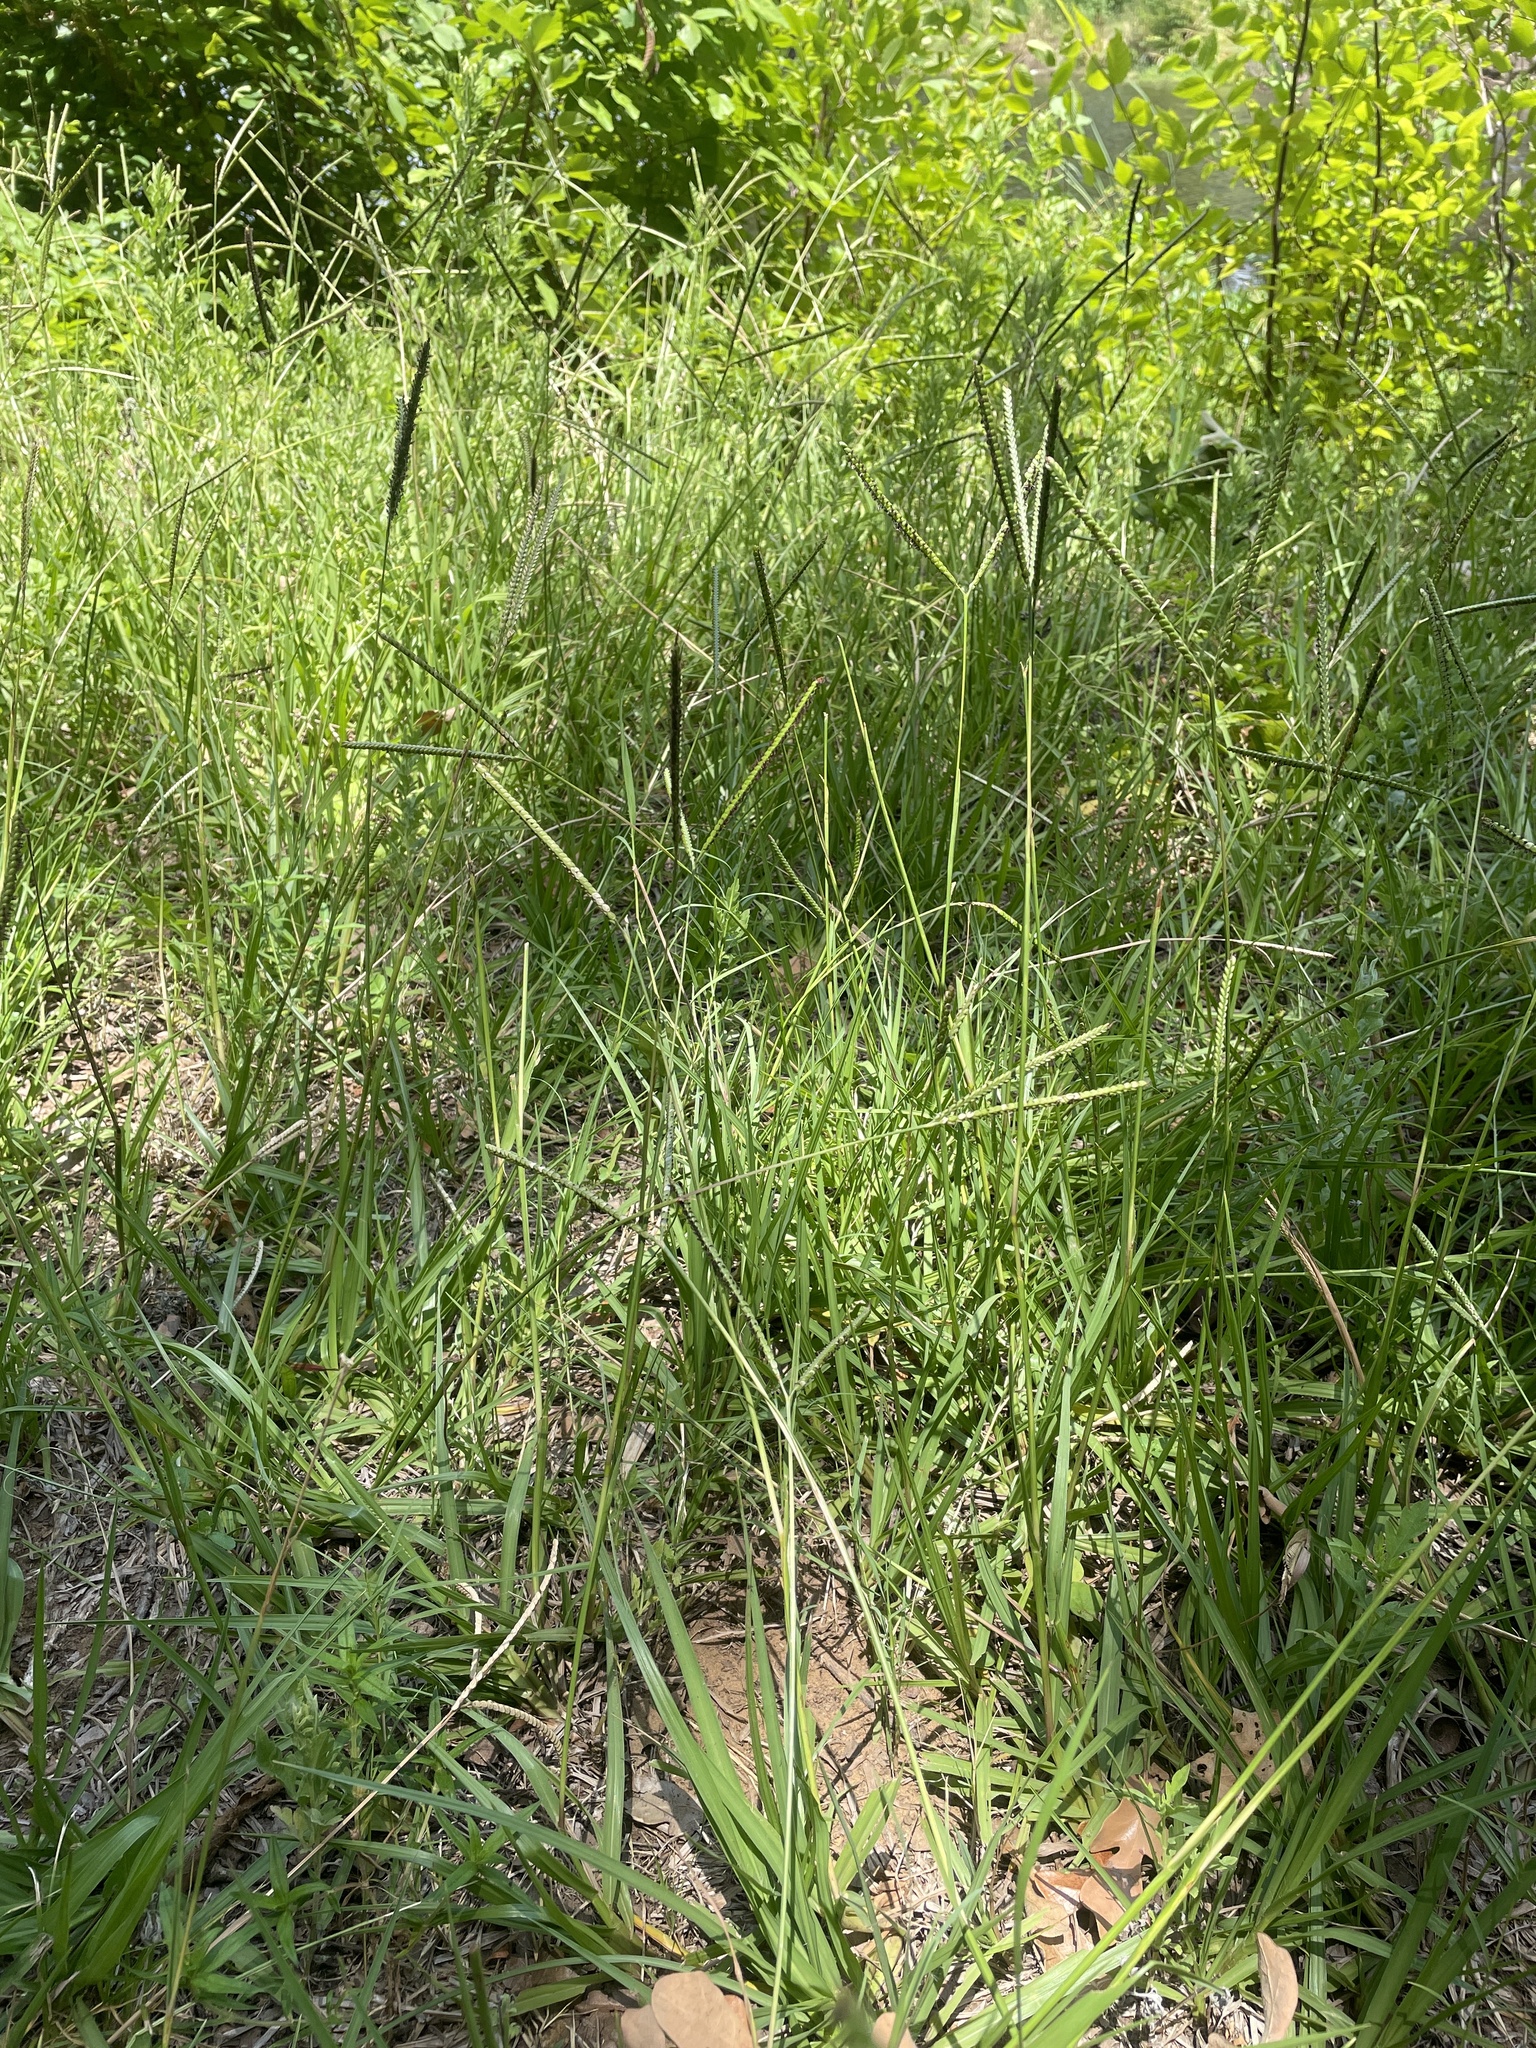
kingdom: Plantae
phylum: Tracheophyta
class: Liliopsida
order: Poales
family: Poaceae
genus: Paspalum
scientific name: Paspalum notatum
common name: Bahiagrass
